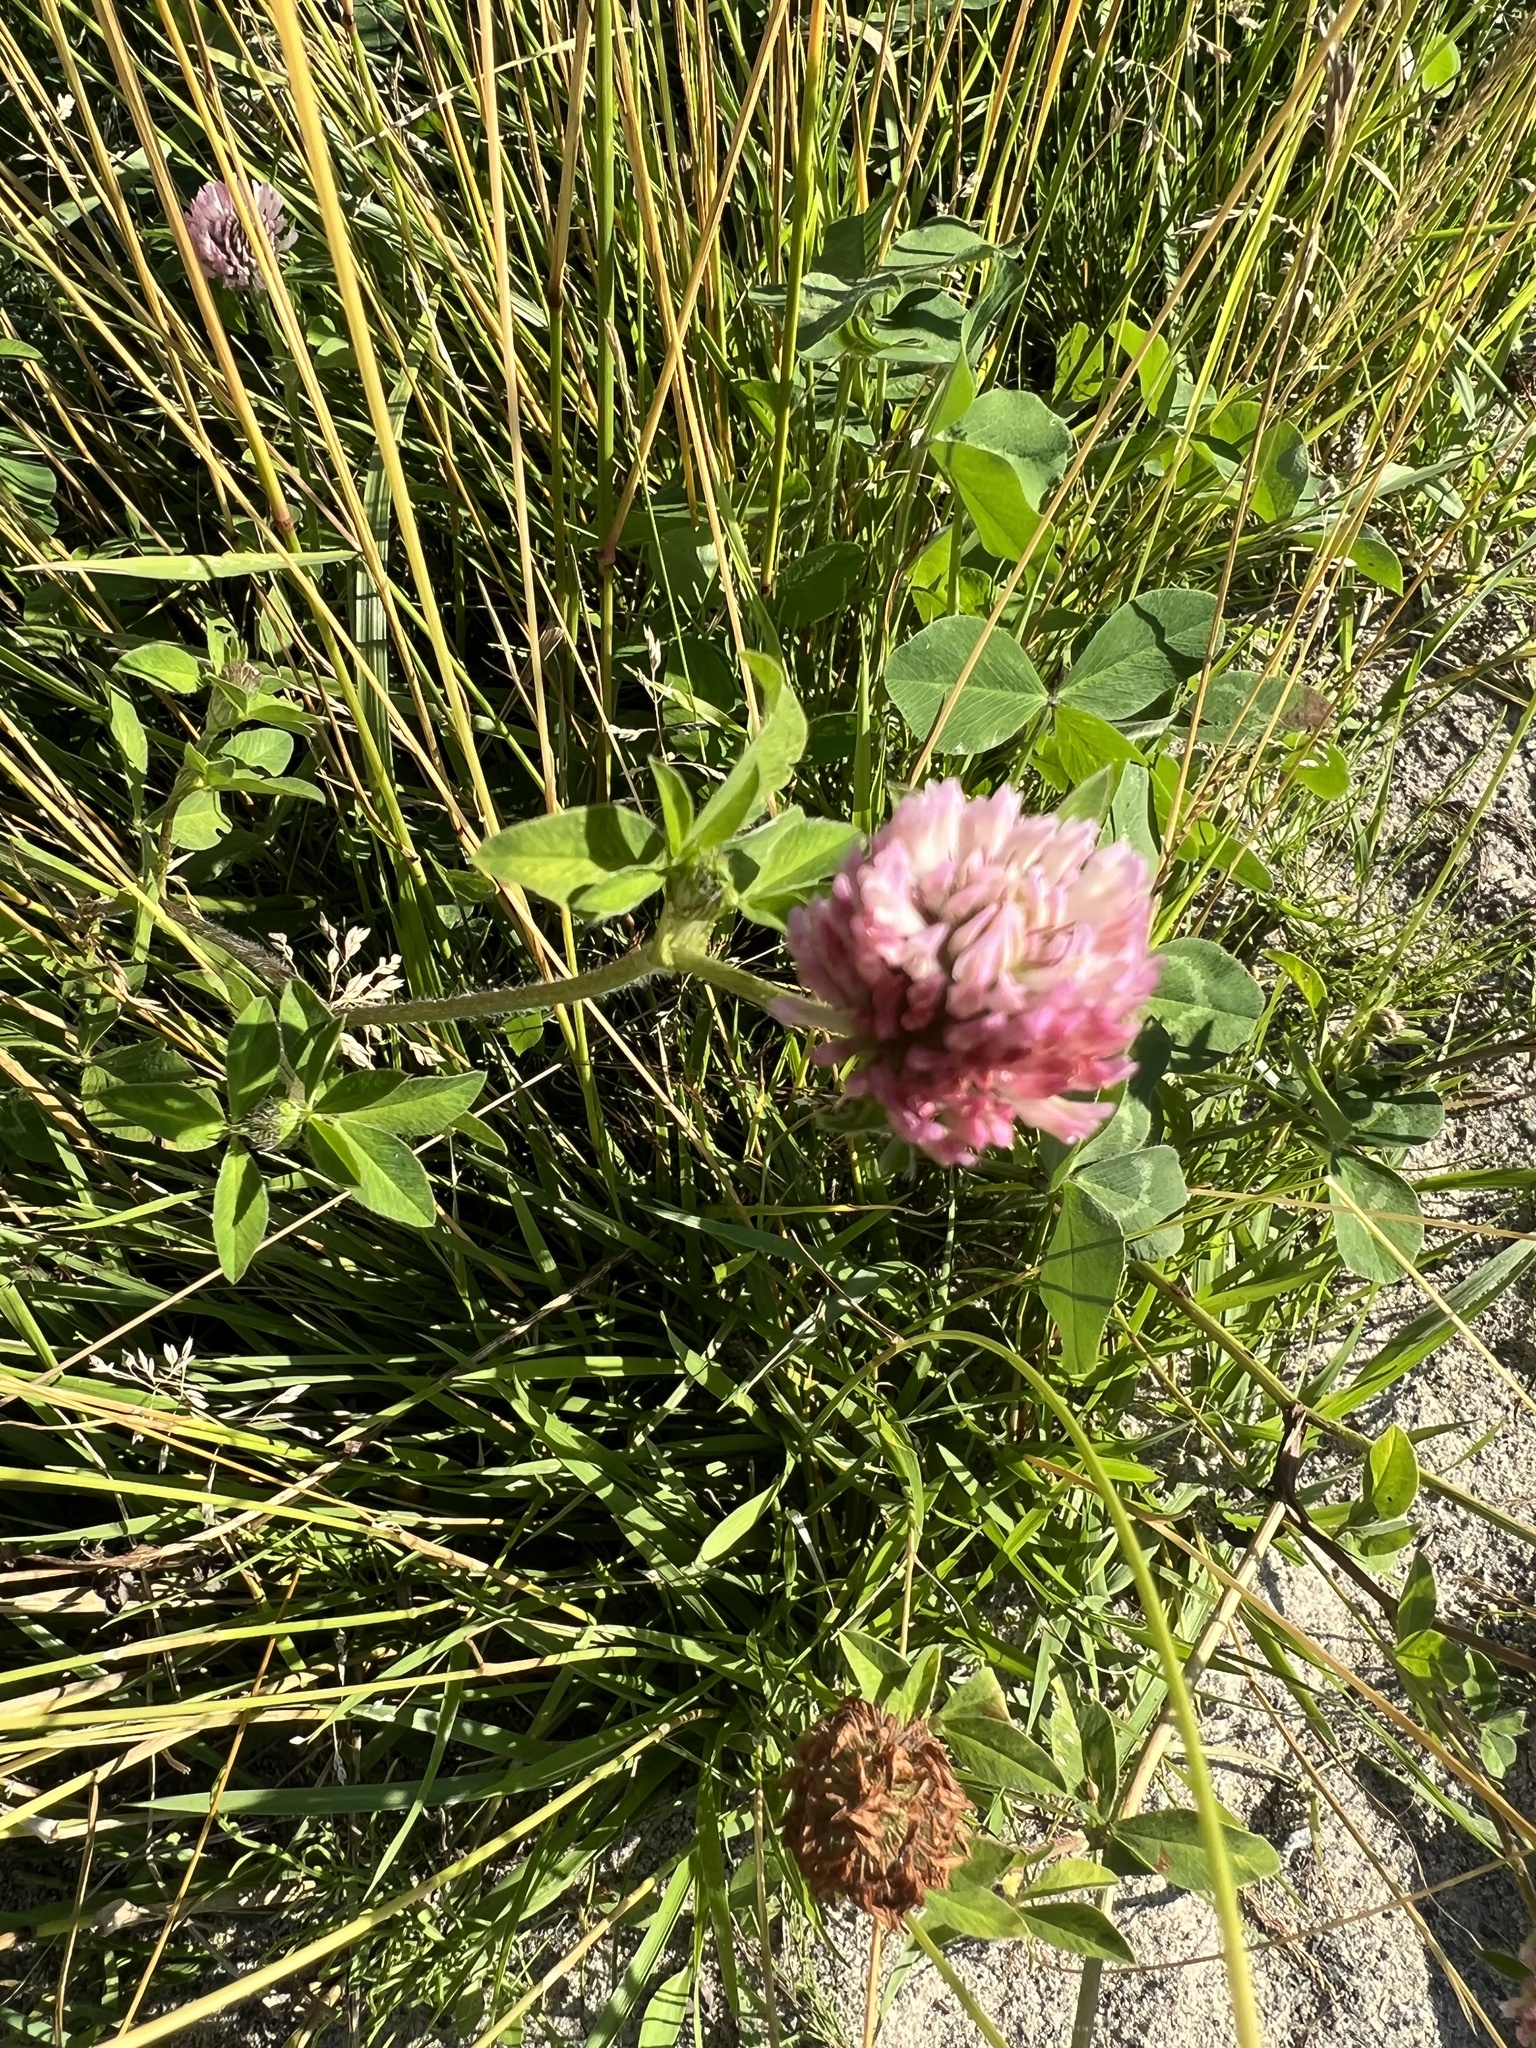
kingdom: Plantae
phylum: Tracheophyta
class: Magnoliopsida
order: Fabales
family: Fabaceae
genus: Trifolium
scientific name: Trifolium pratense
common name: Red clover
